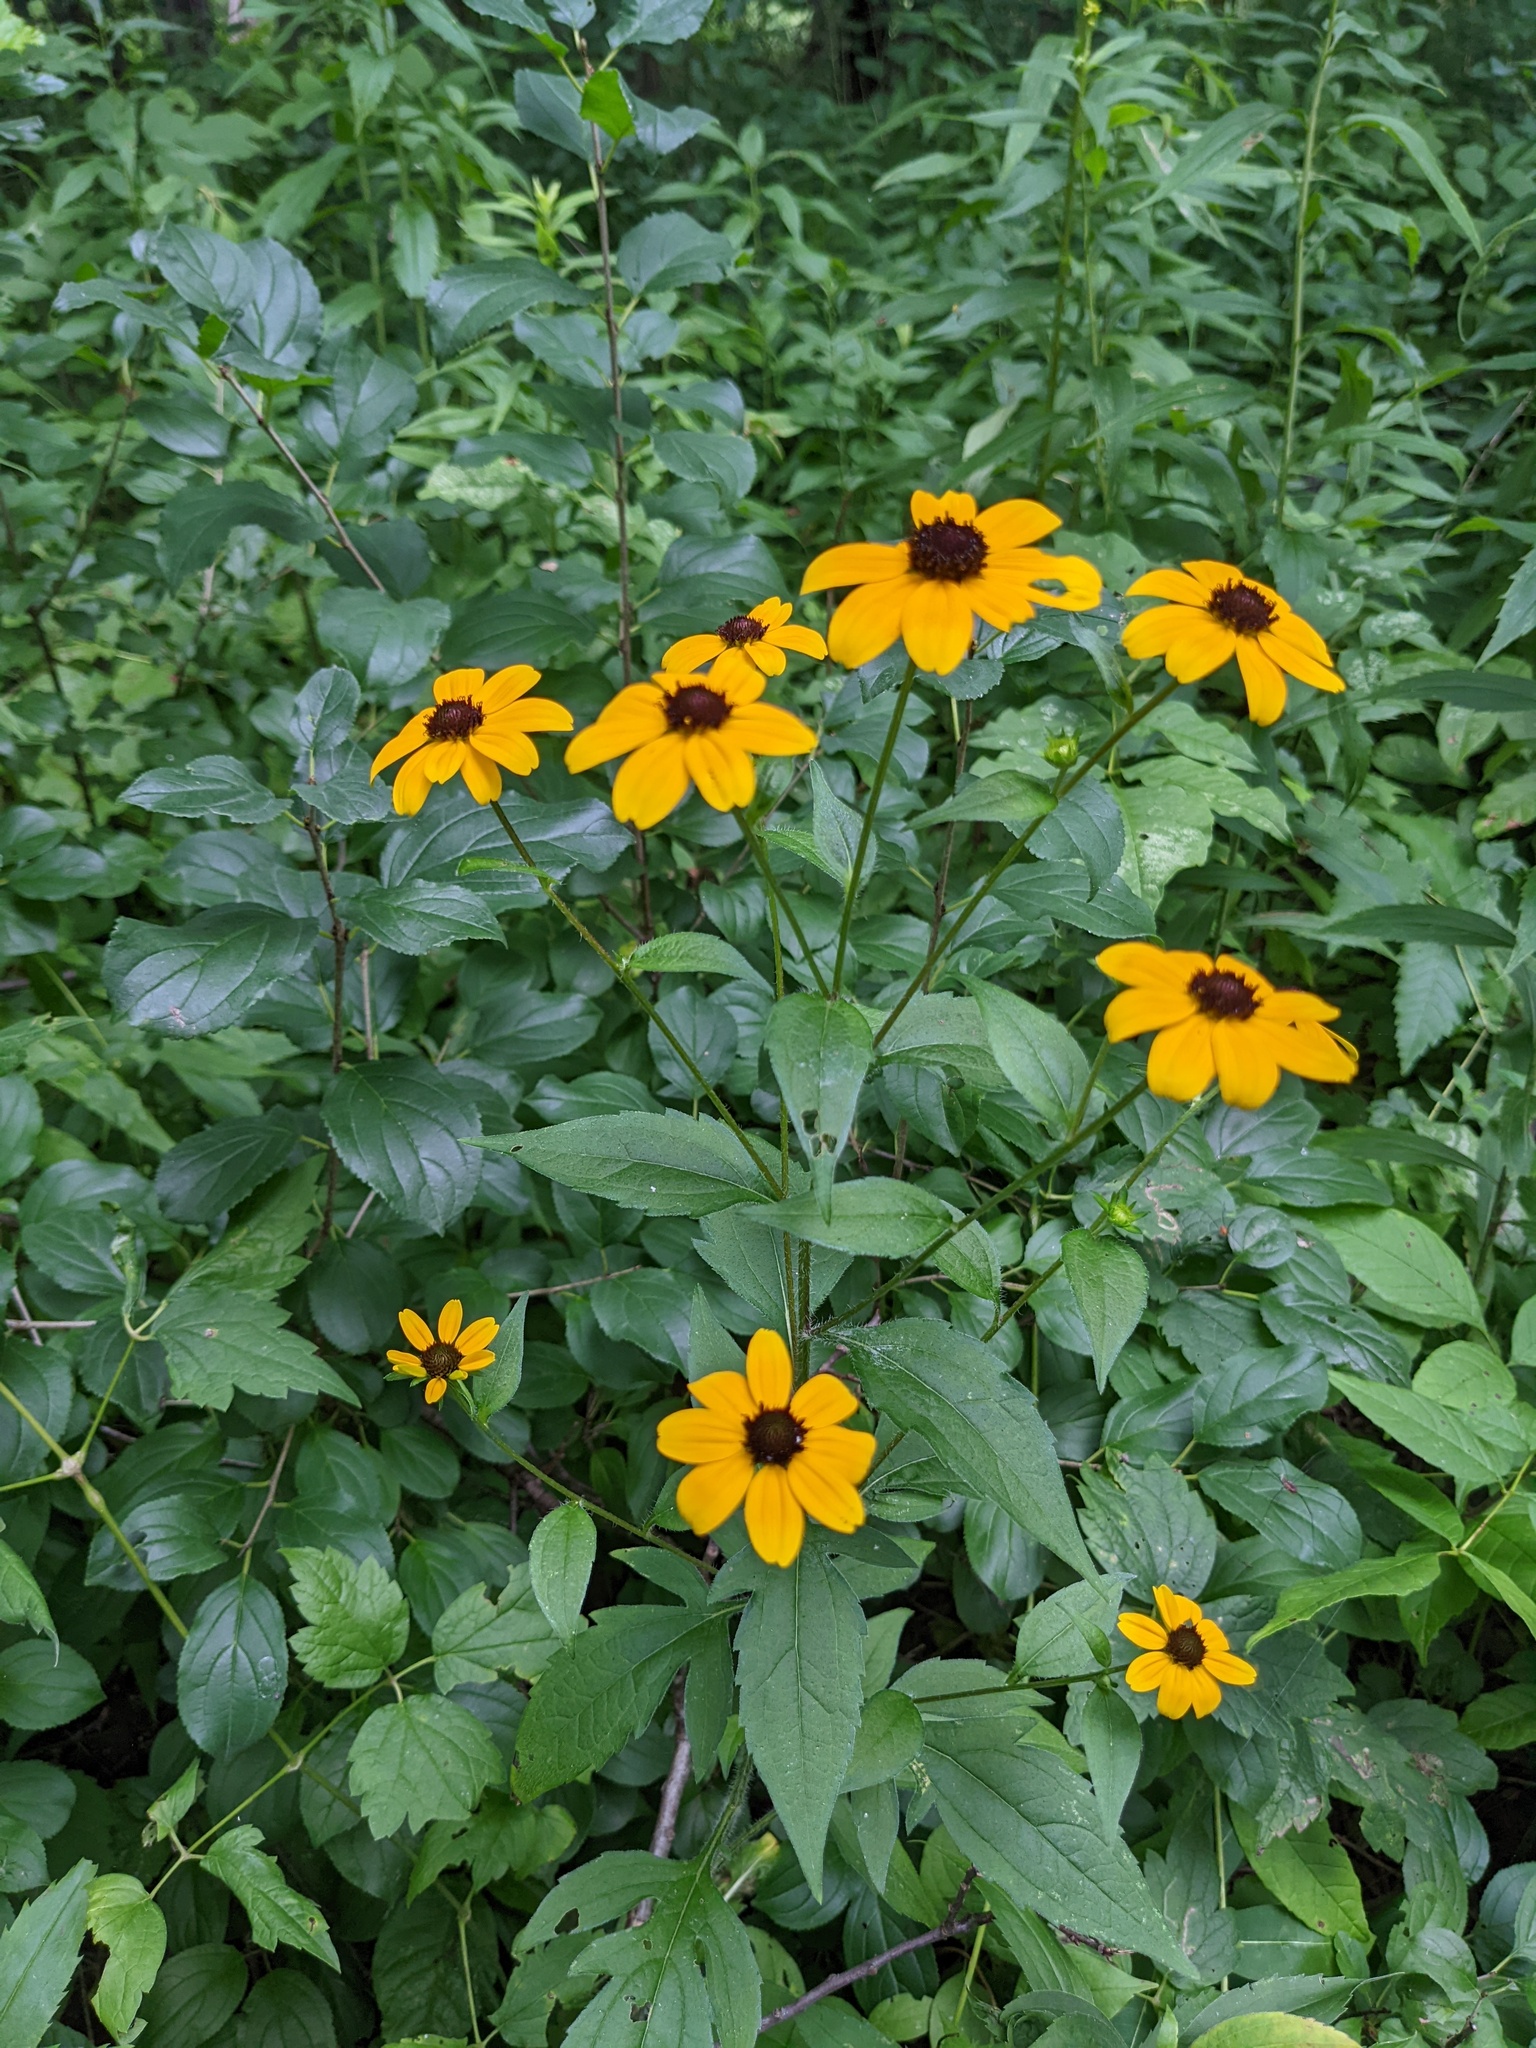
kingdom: Plantae
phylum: Tracheophyta
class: Magnoliopsida
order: Asterales
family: Asteraceae
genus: Rudbeckia
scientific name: Rudbeckia triloba
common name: Thin-leaved coneflower
